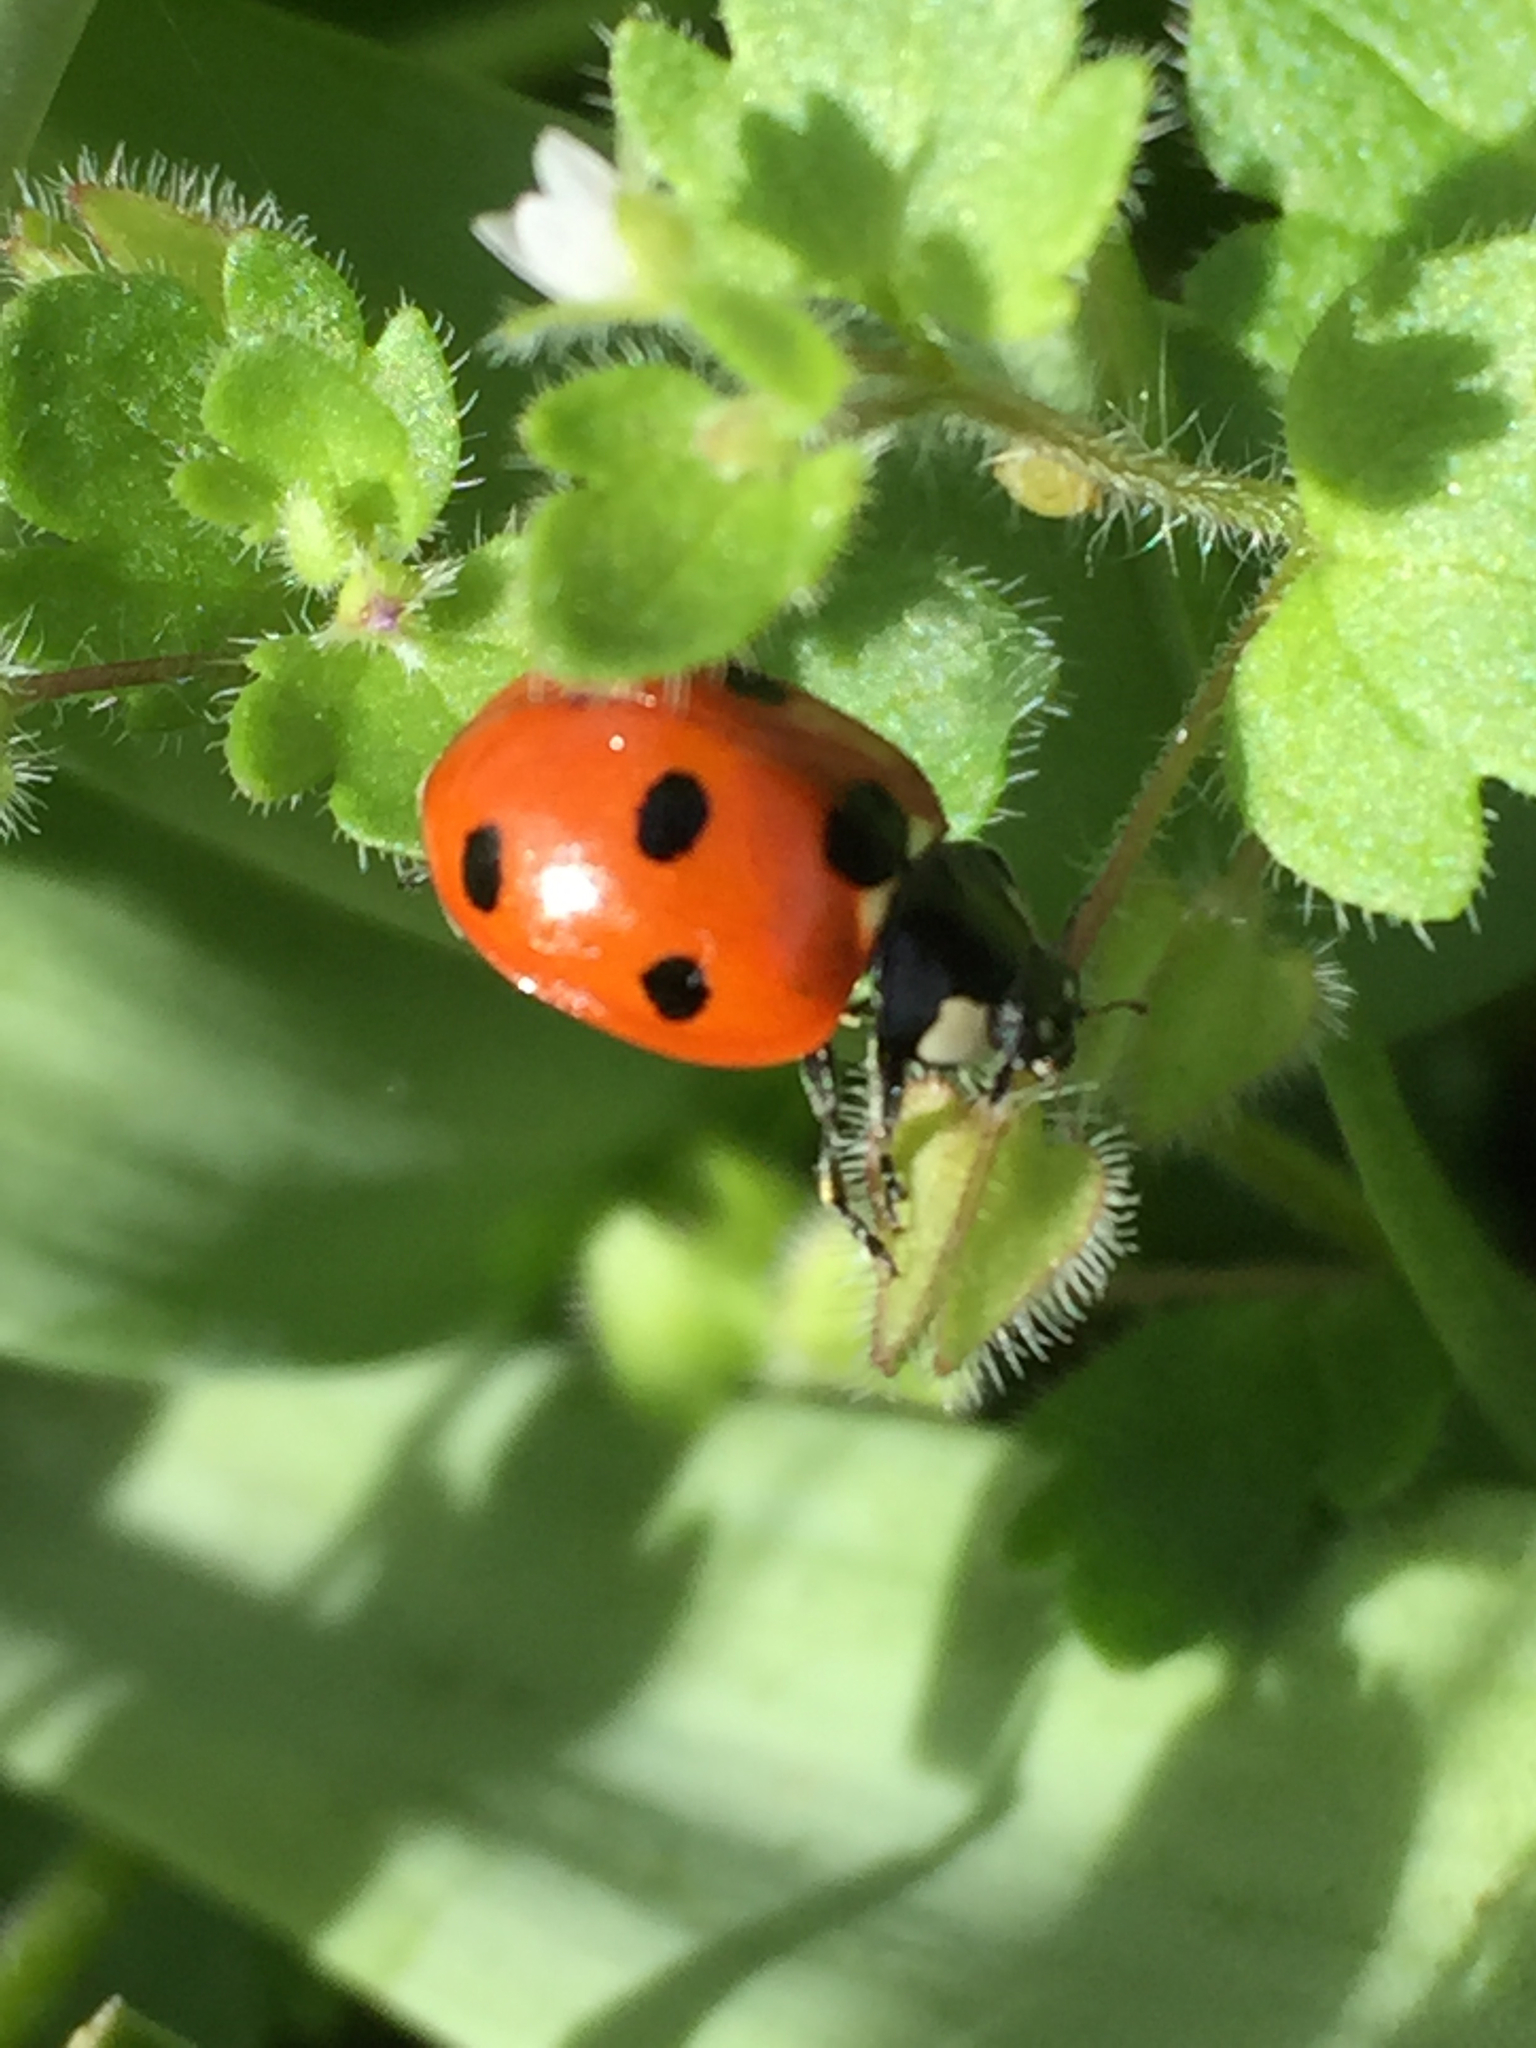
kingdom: Animalia
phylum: Arthropoda
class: Insecta
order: Coleoptera
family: Coccinellidae
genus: Coccinella
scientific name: Coccinella septempunctata
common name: Sevenspotted lady beetle
